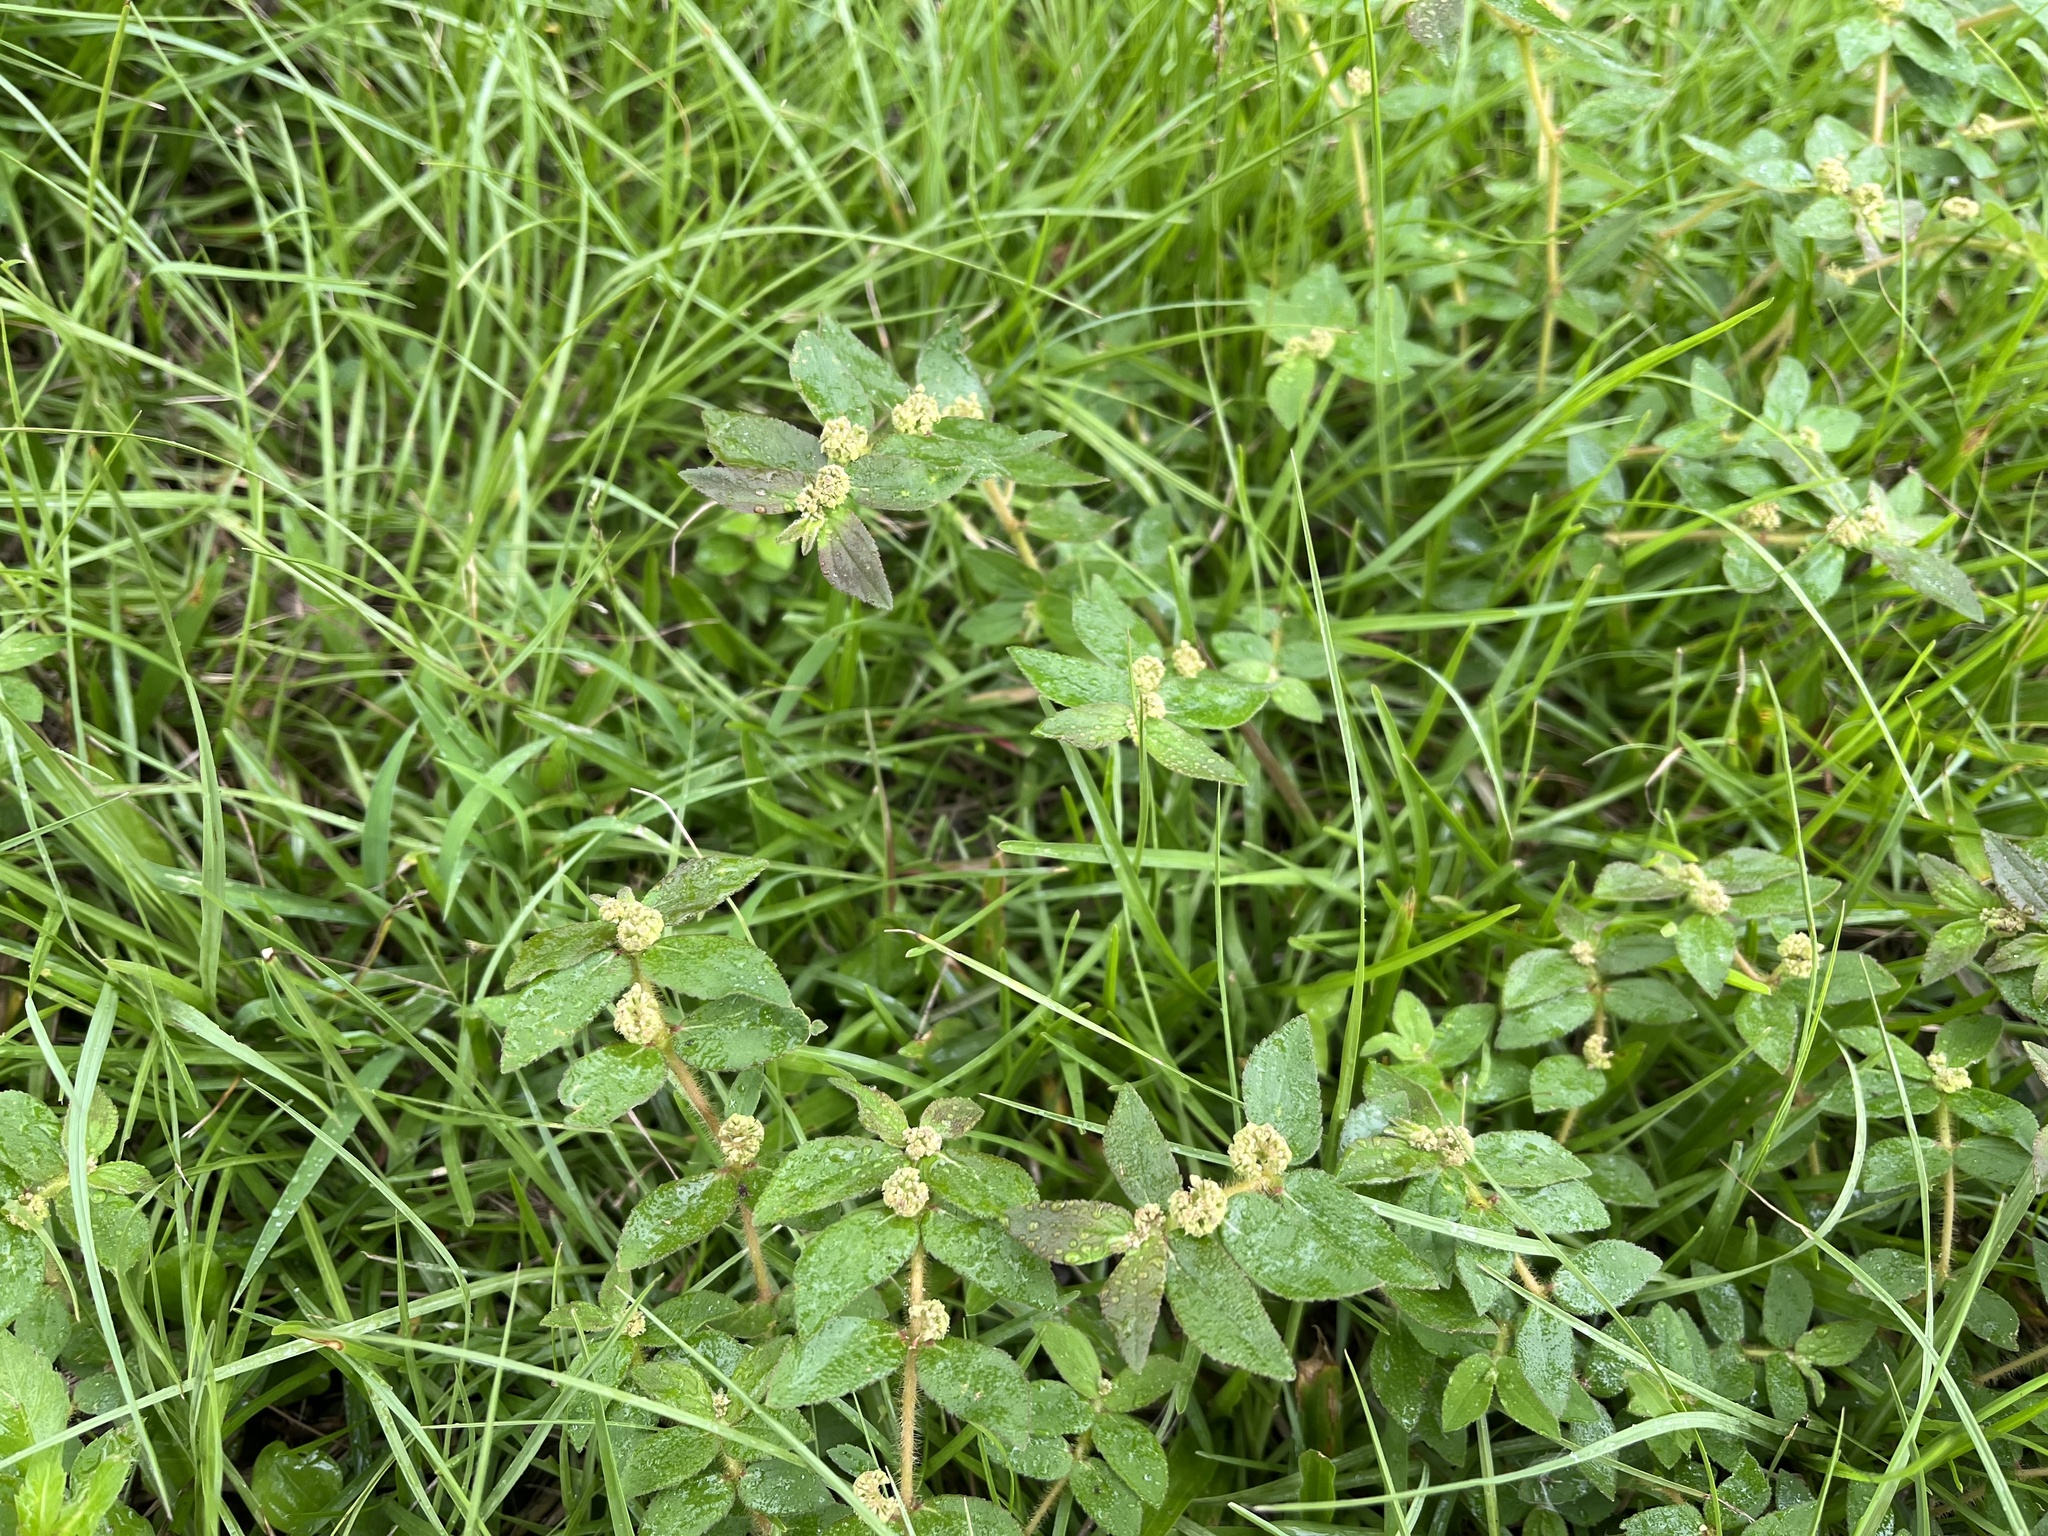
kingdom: Plantae
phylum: Tracheophyta
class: Magnoliopsida
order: Malpighiales
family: Euphorbiaceae
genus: Euphorbia
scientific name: Euphorbia hirta
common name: Pillpod sandmat
